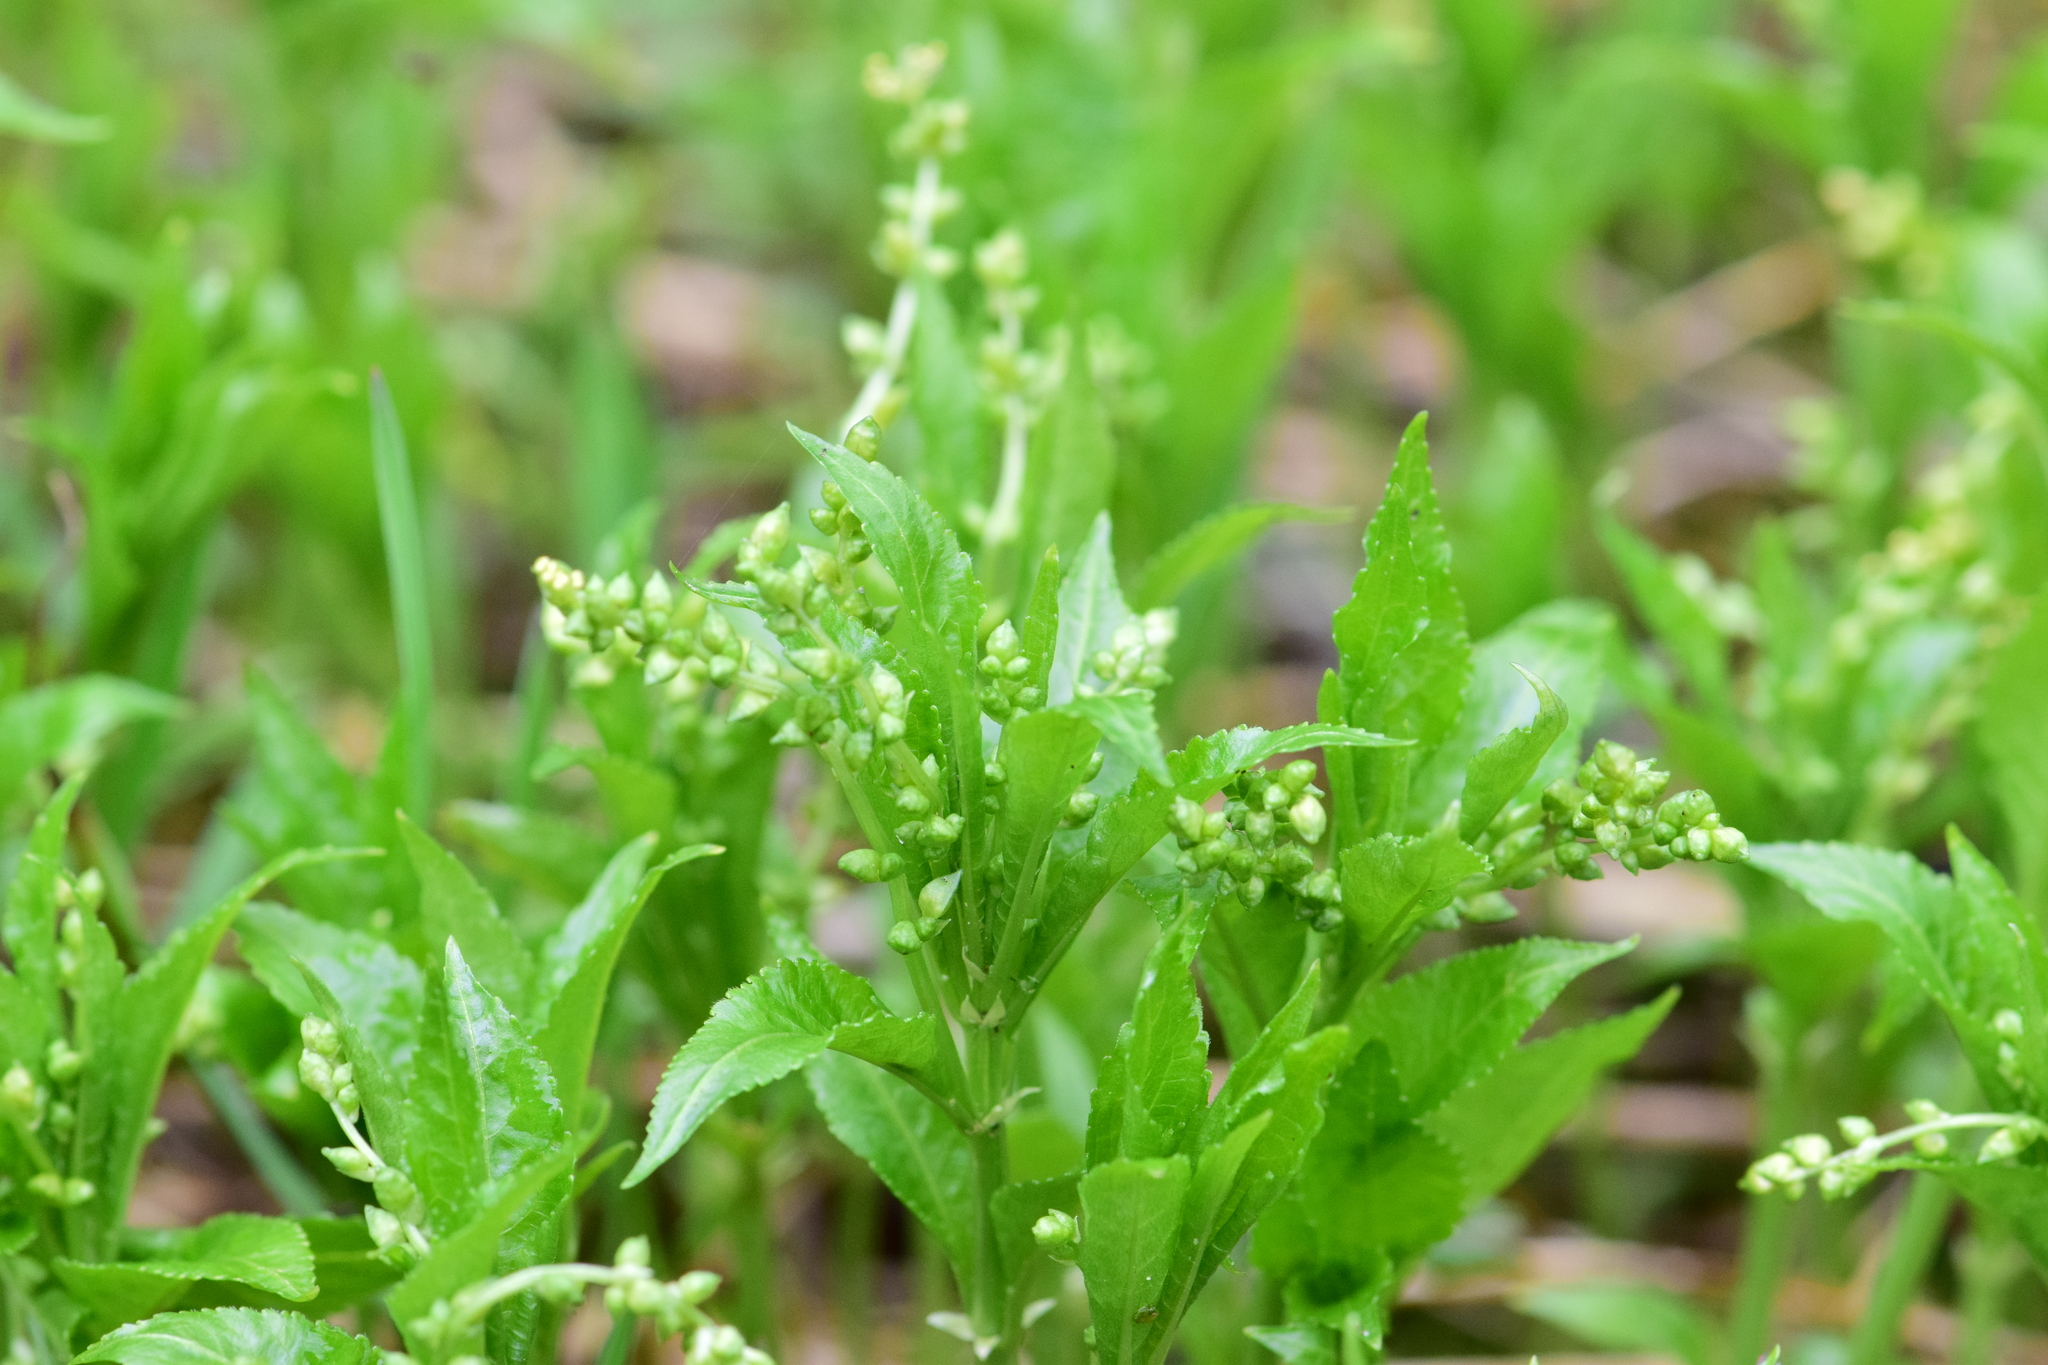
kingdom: Plantae
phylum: Tracheophyta
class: Magnoliopsida
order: Malpighiales
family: Euphorbiaceae
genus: Mercurialis
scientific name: Mercurialis perennis
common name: Dog mercury
